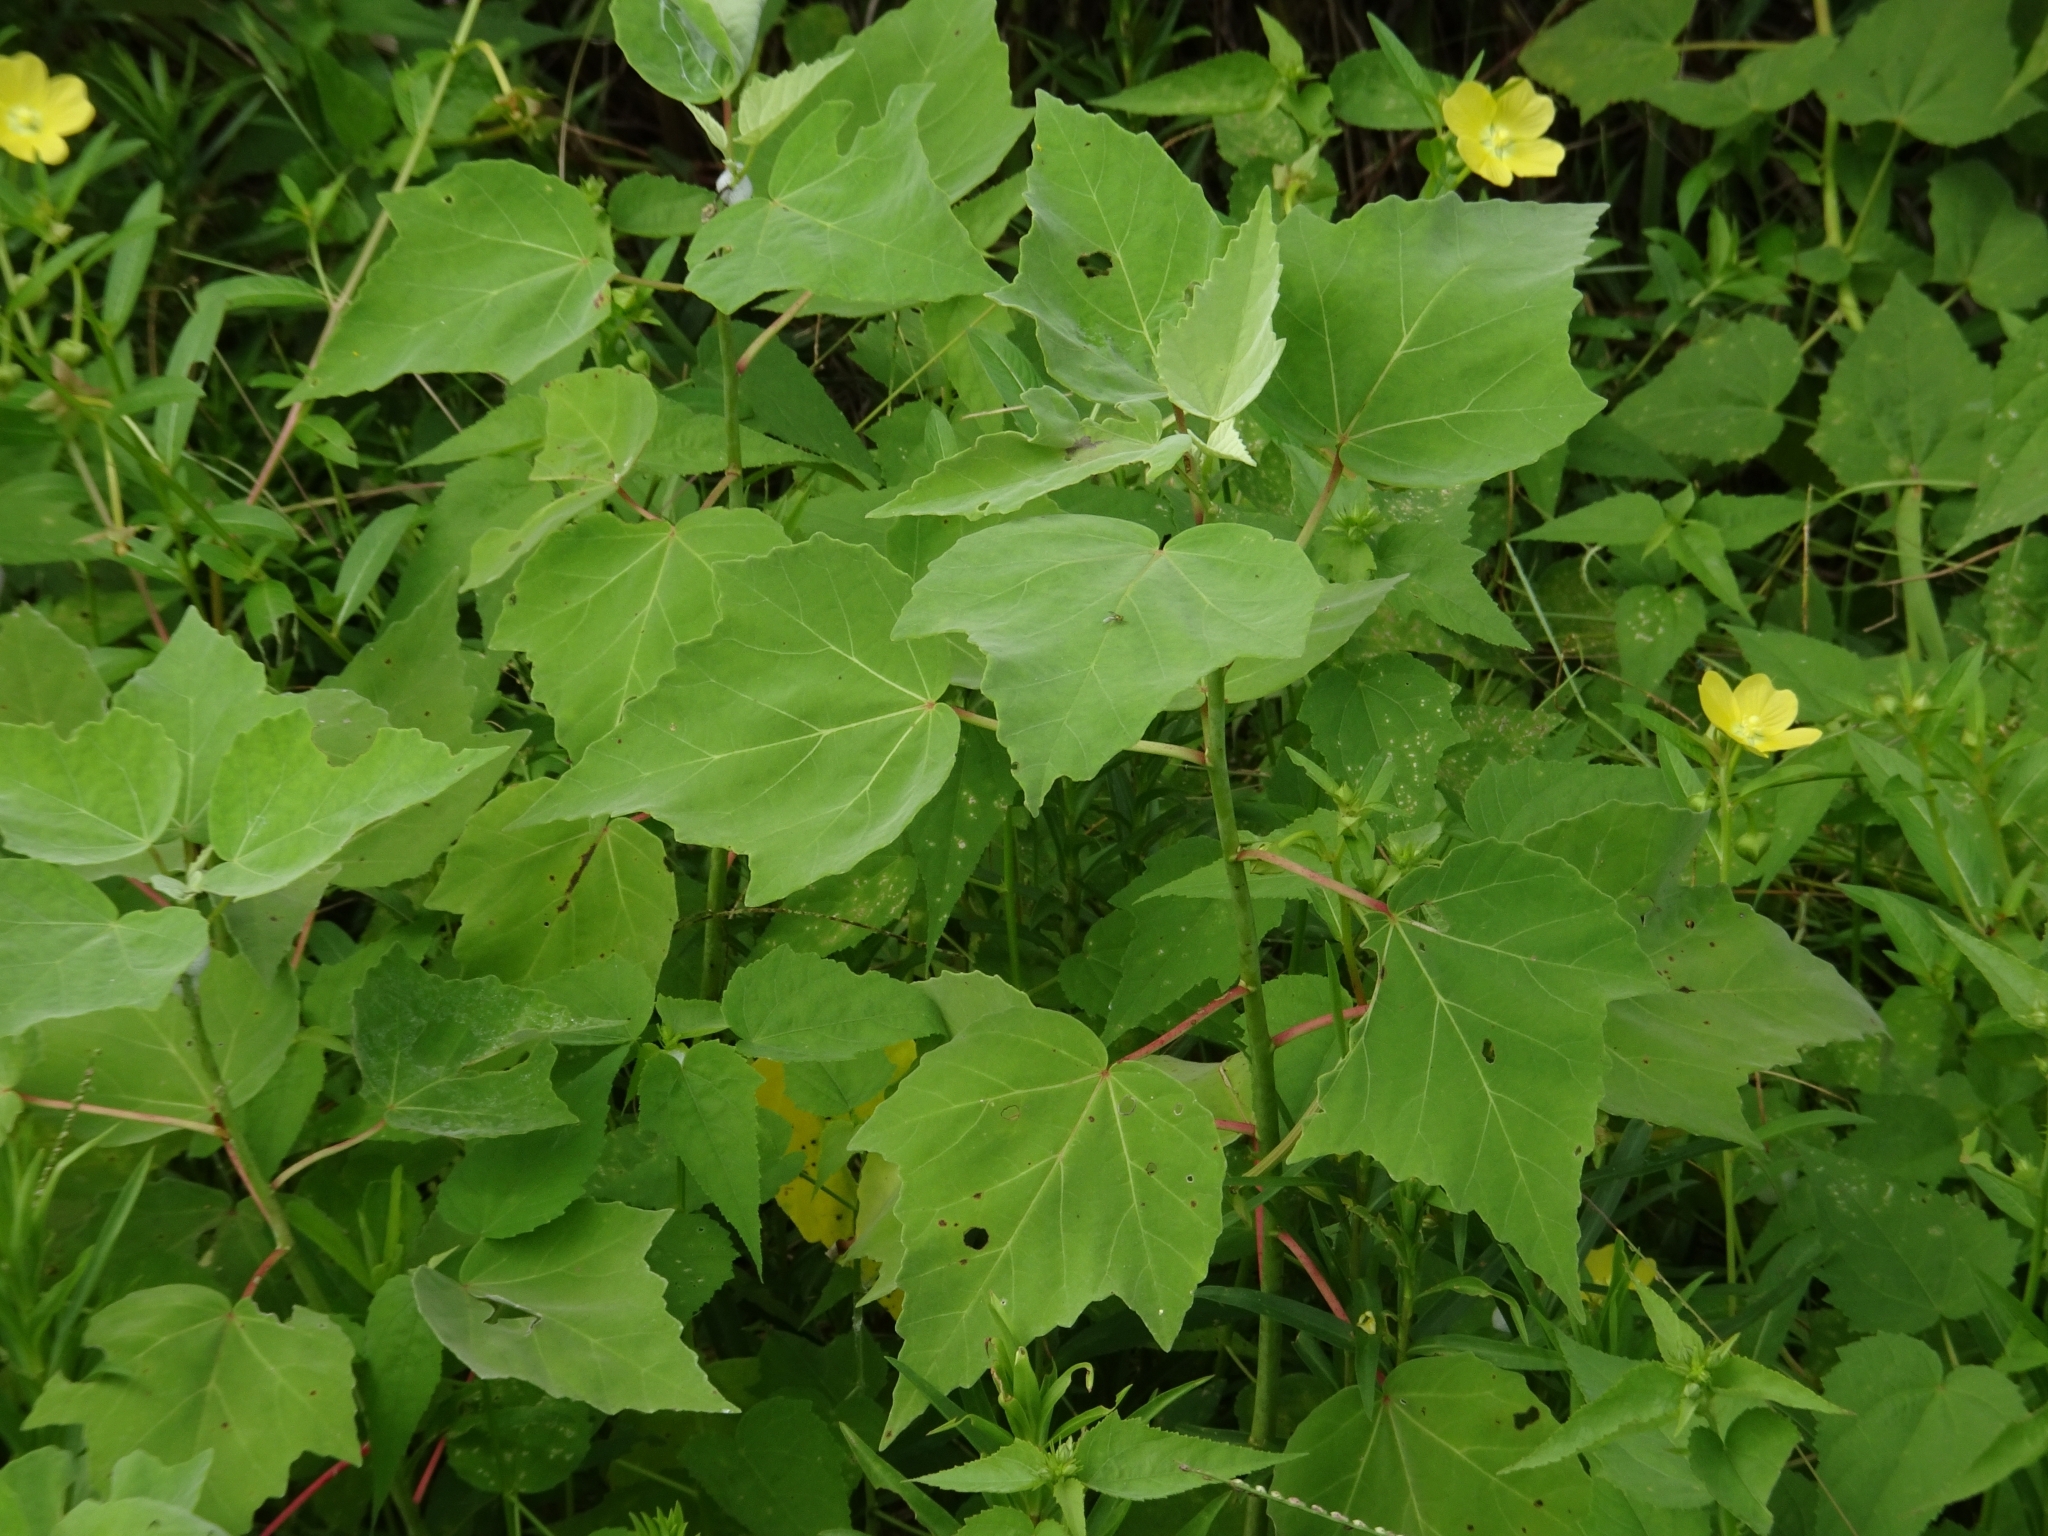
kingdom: Plantae
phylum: Tracheophyta
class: Magnoliopsida
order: Malvales
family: Malvaceae
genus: Hibiscus
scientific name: Hibiscus grandiflorus
